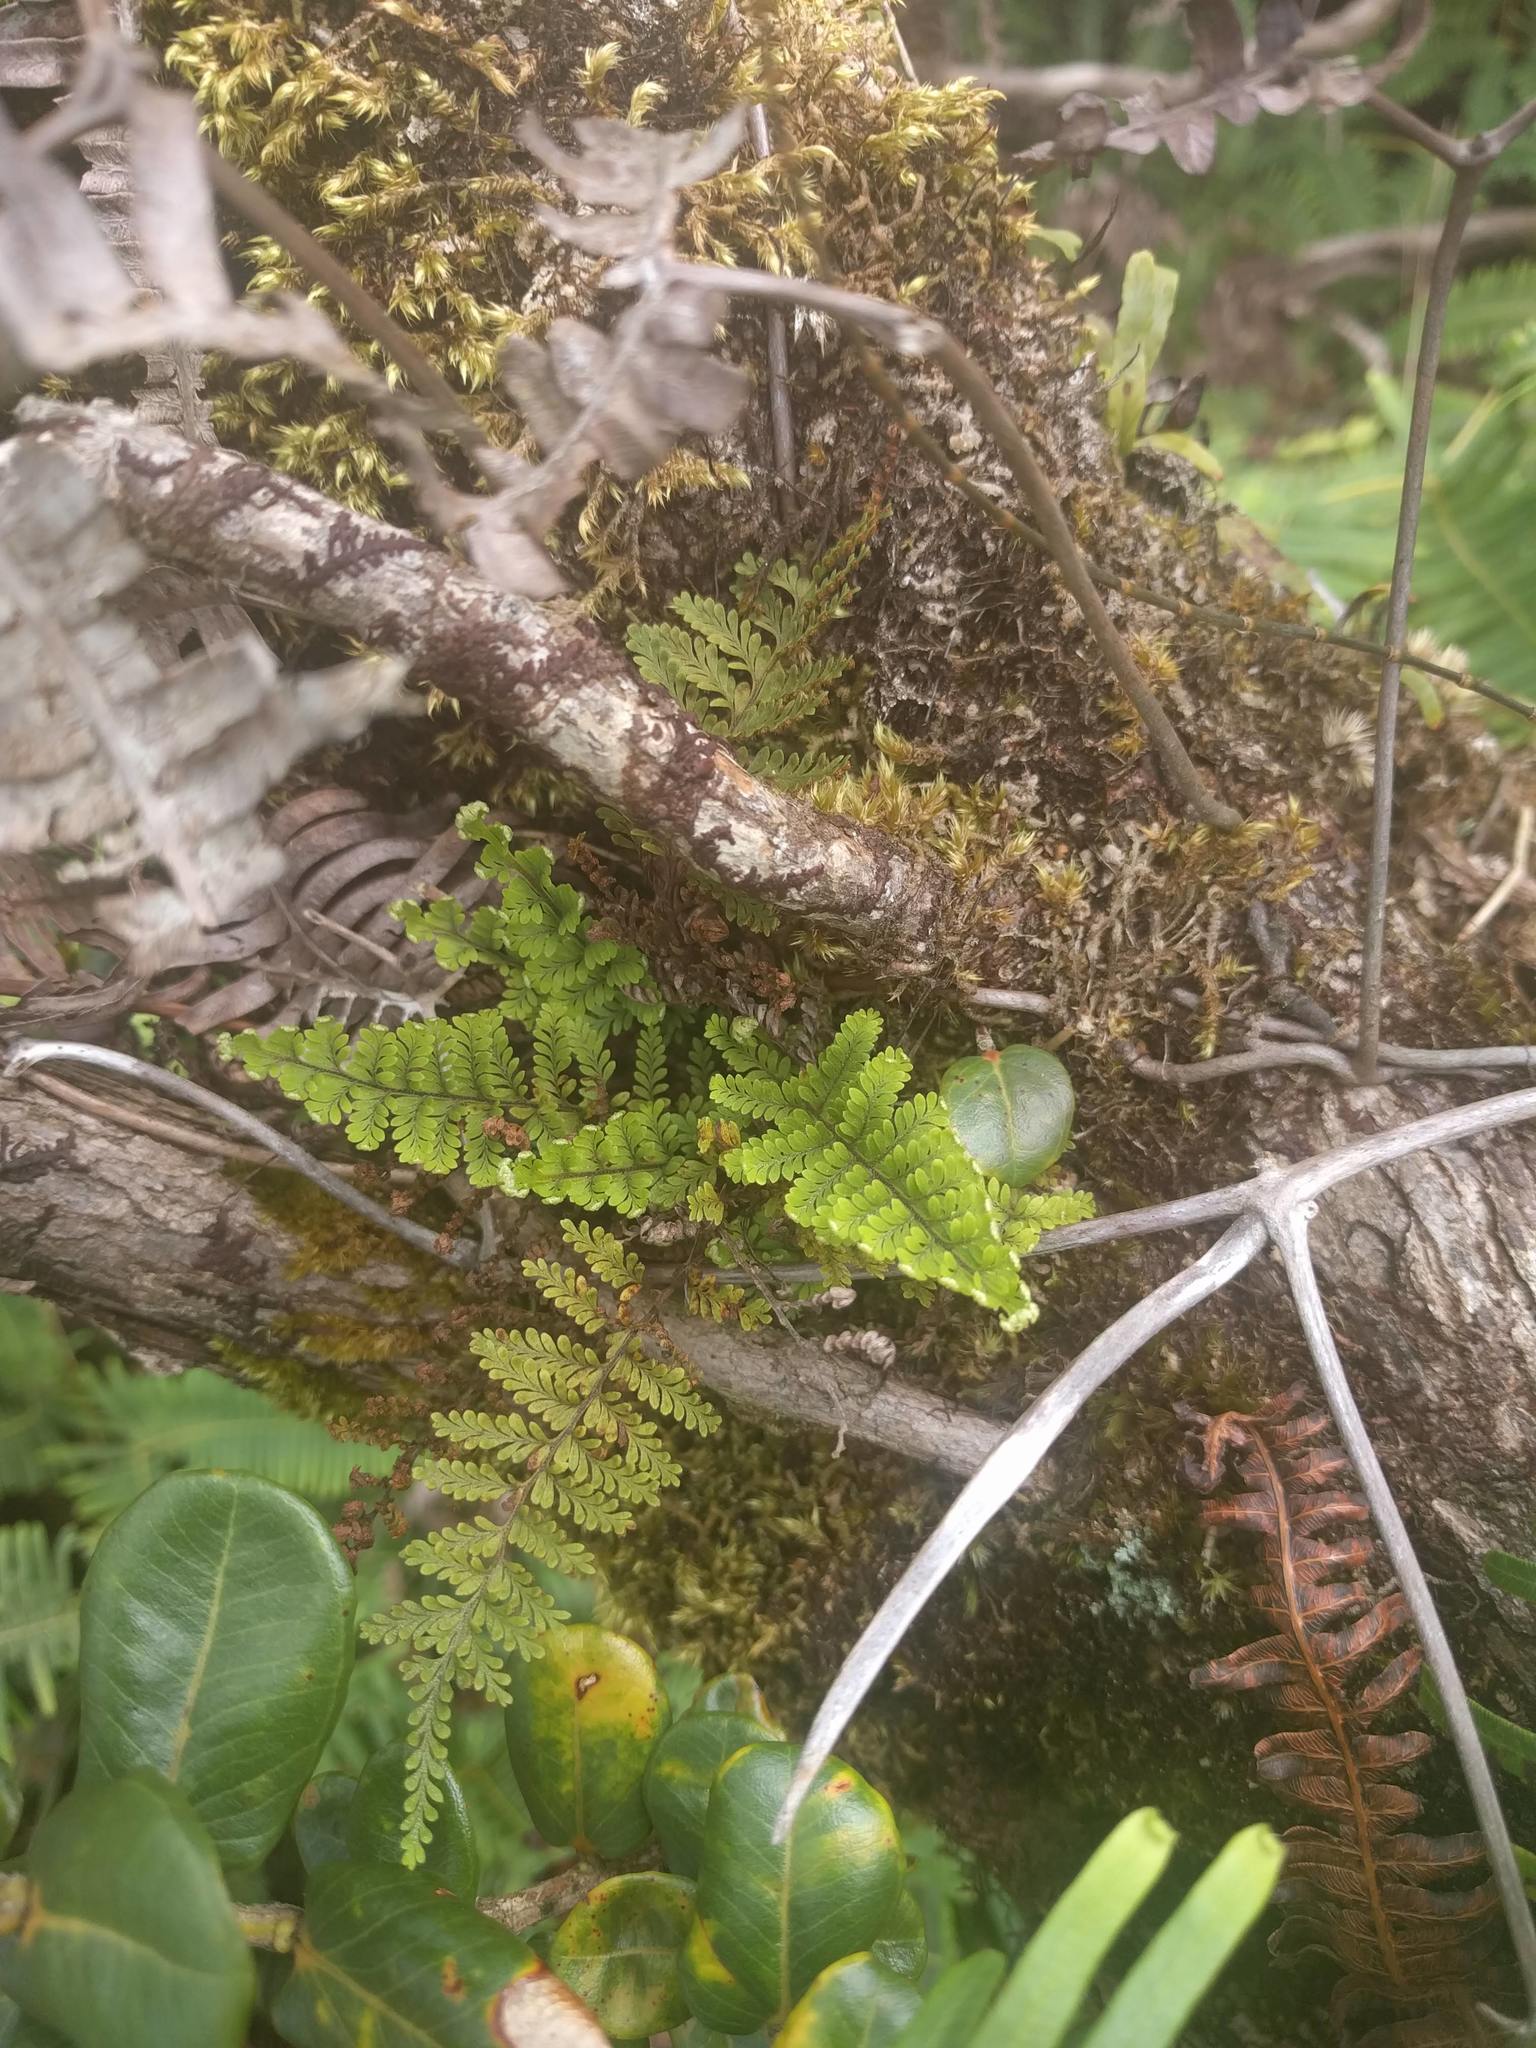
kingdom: Plantae
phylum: Tracheophyta
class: Polypodiopsida
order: Polypodiales
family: Polypodiaceae
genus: Adenophorus
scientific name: Adenophorus tamariscinus
